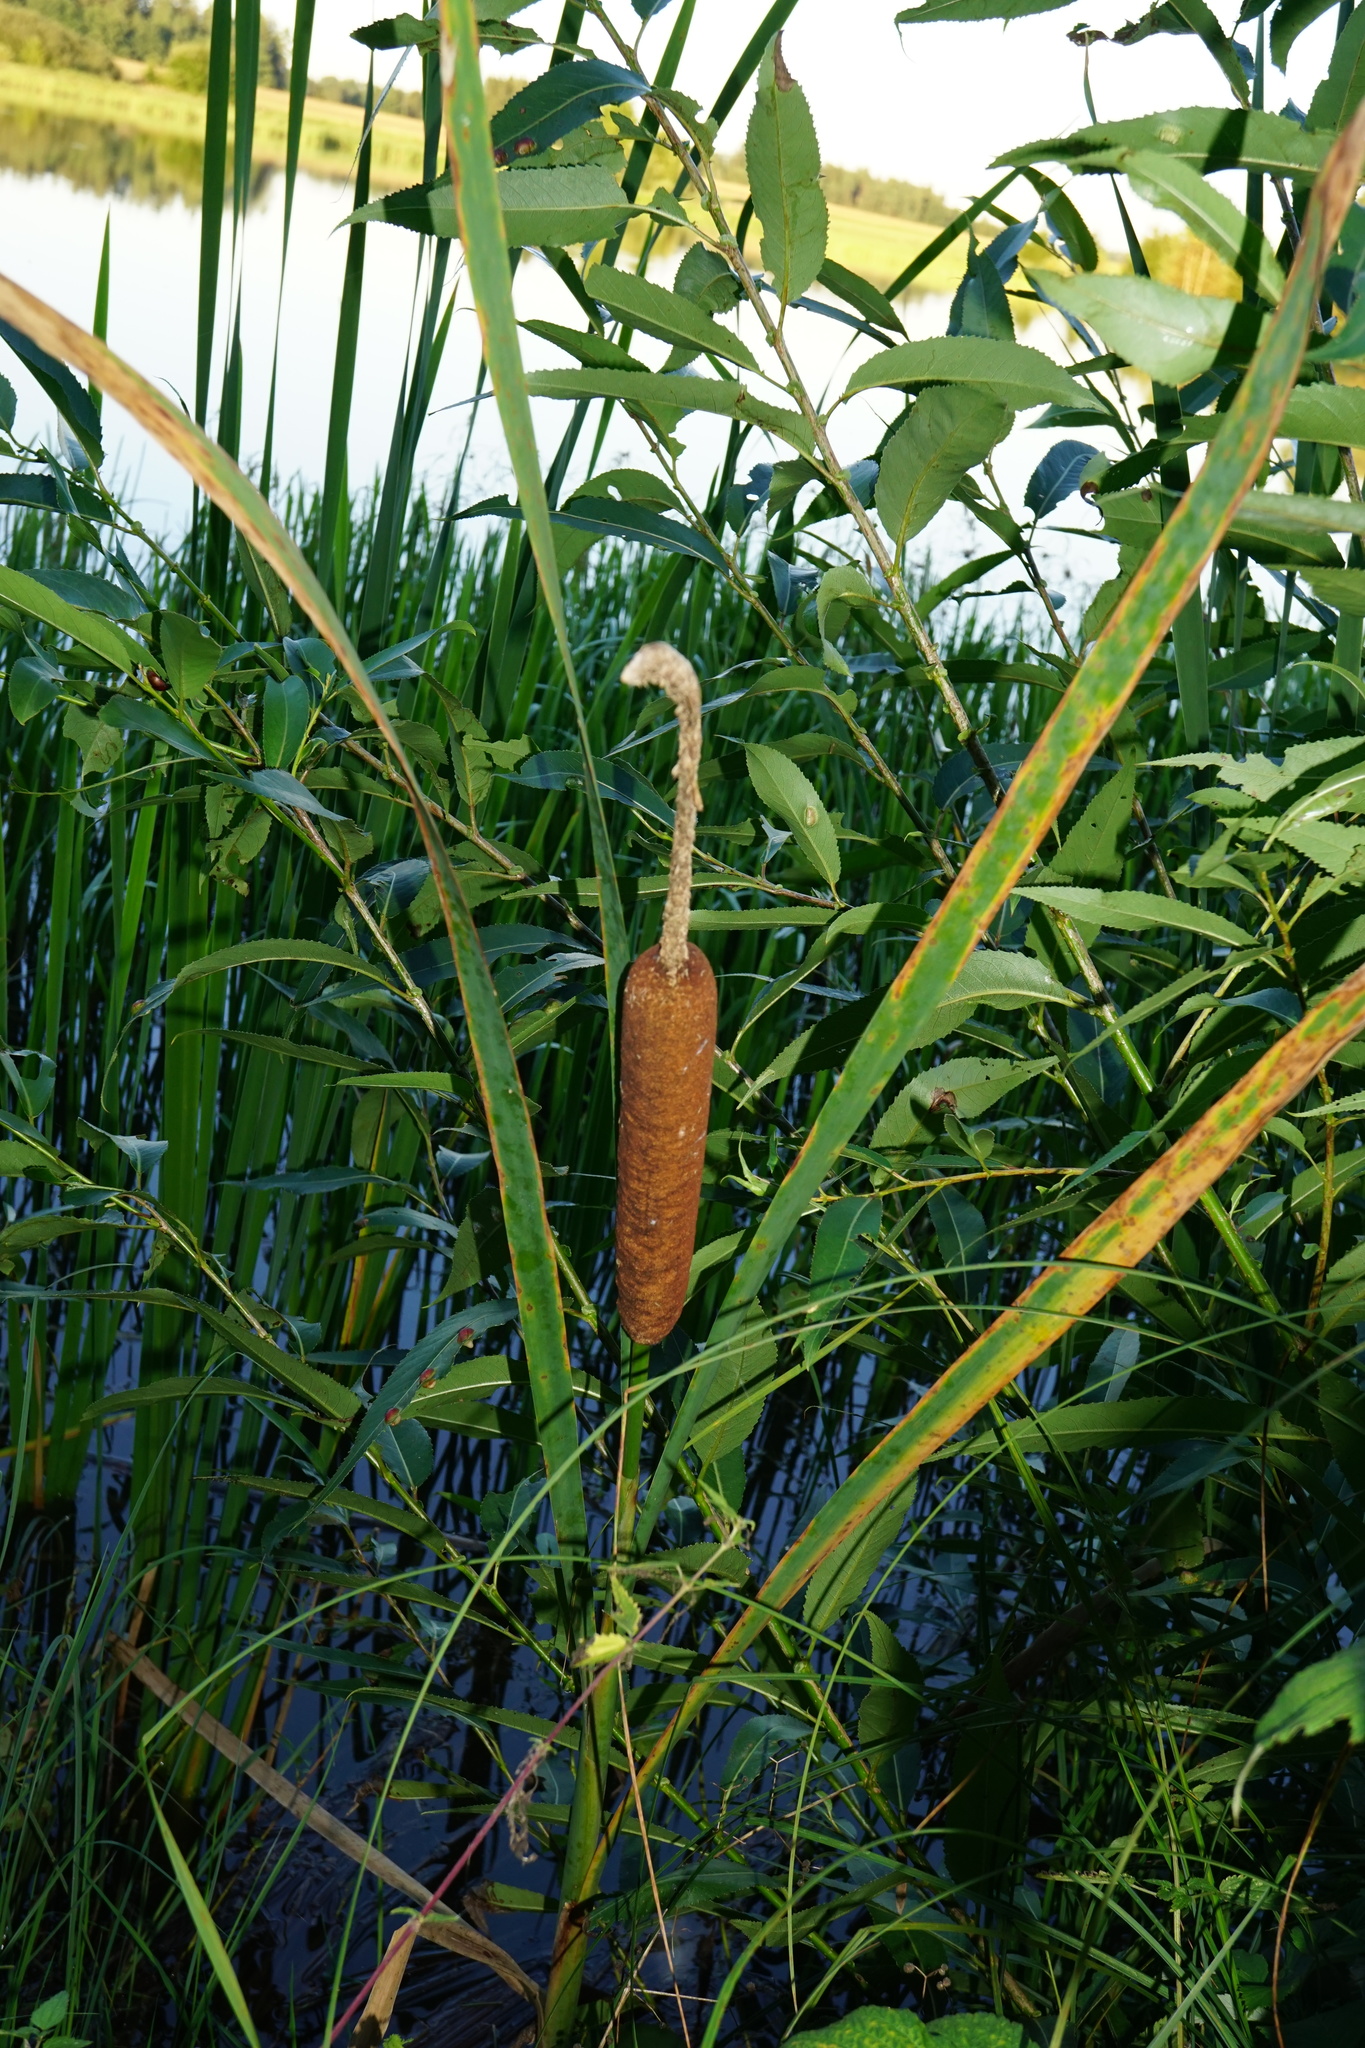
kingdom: Plantae
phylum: Tracheophyta
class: Liliopsida
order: Poales
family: Typhaceae
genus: Typha
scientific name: Typha latifolia
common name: Broadleaf cattail
